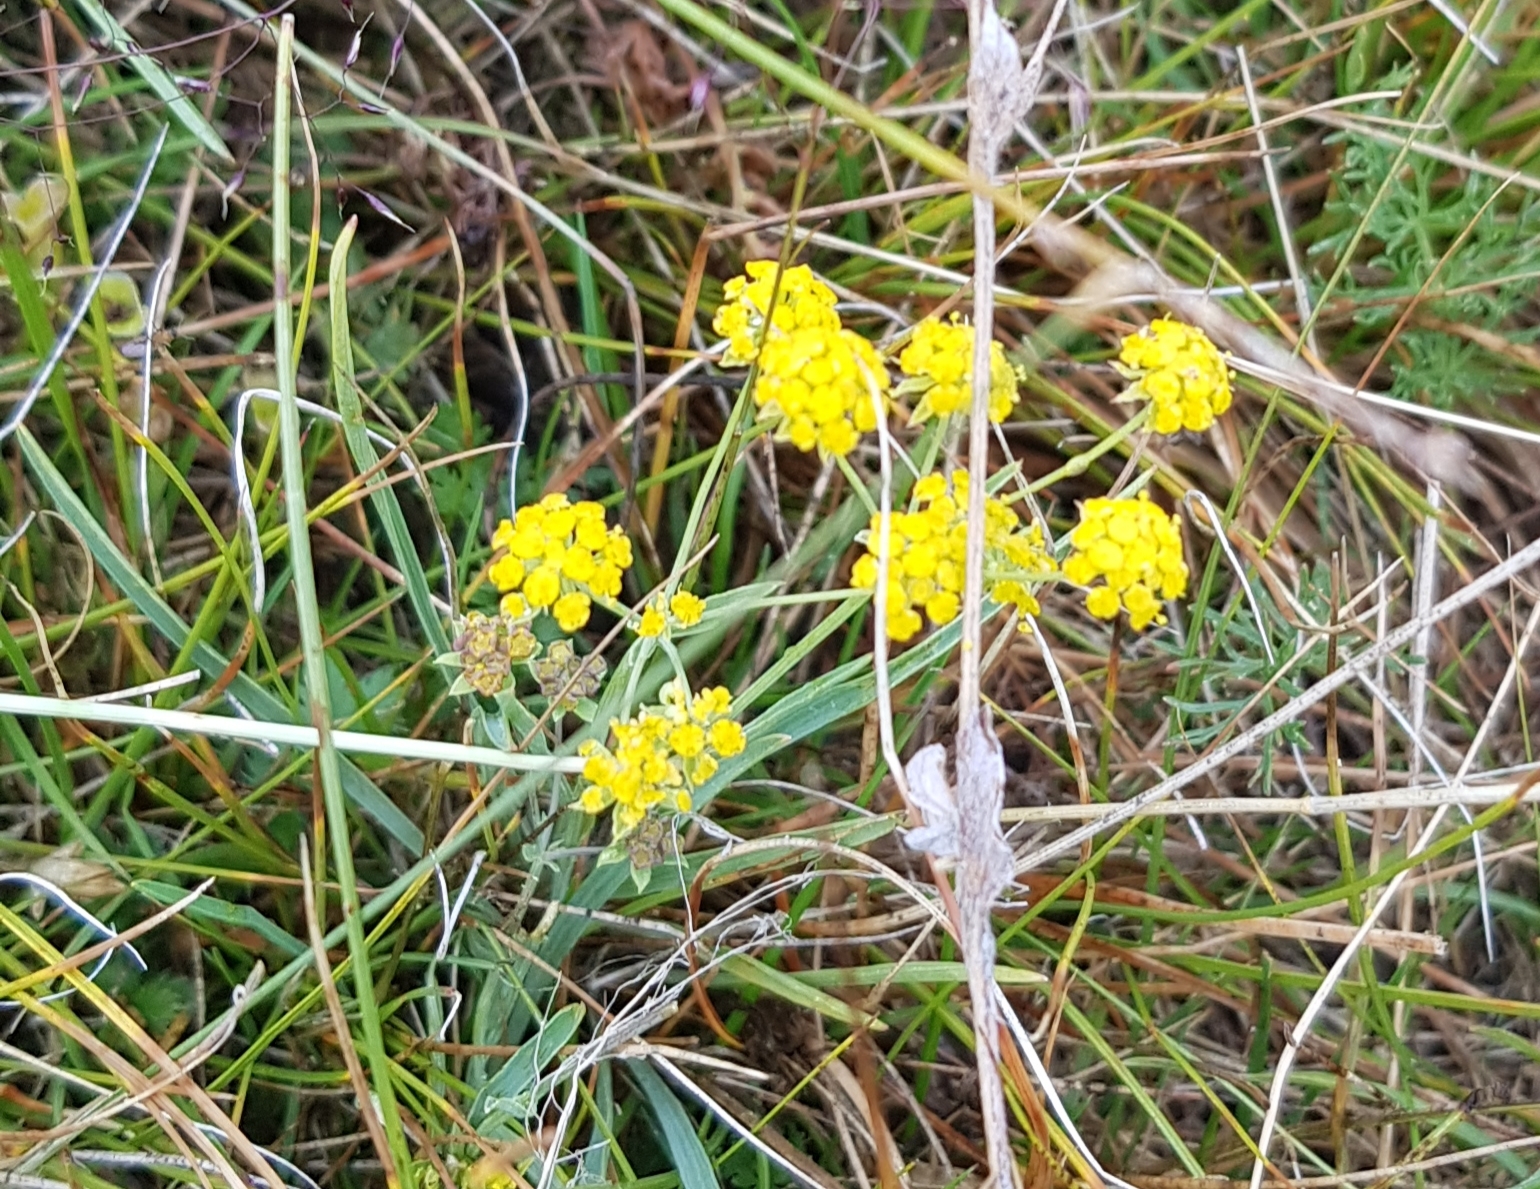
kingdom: Plantae
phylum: Tracheophyta
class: Magnoliopsida
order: Apiales
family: Apiaceae
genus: Bupleurum
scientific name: Bupleurum bicaule
